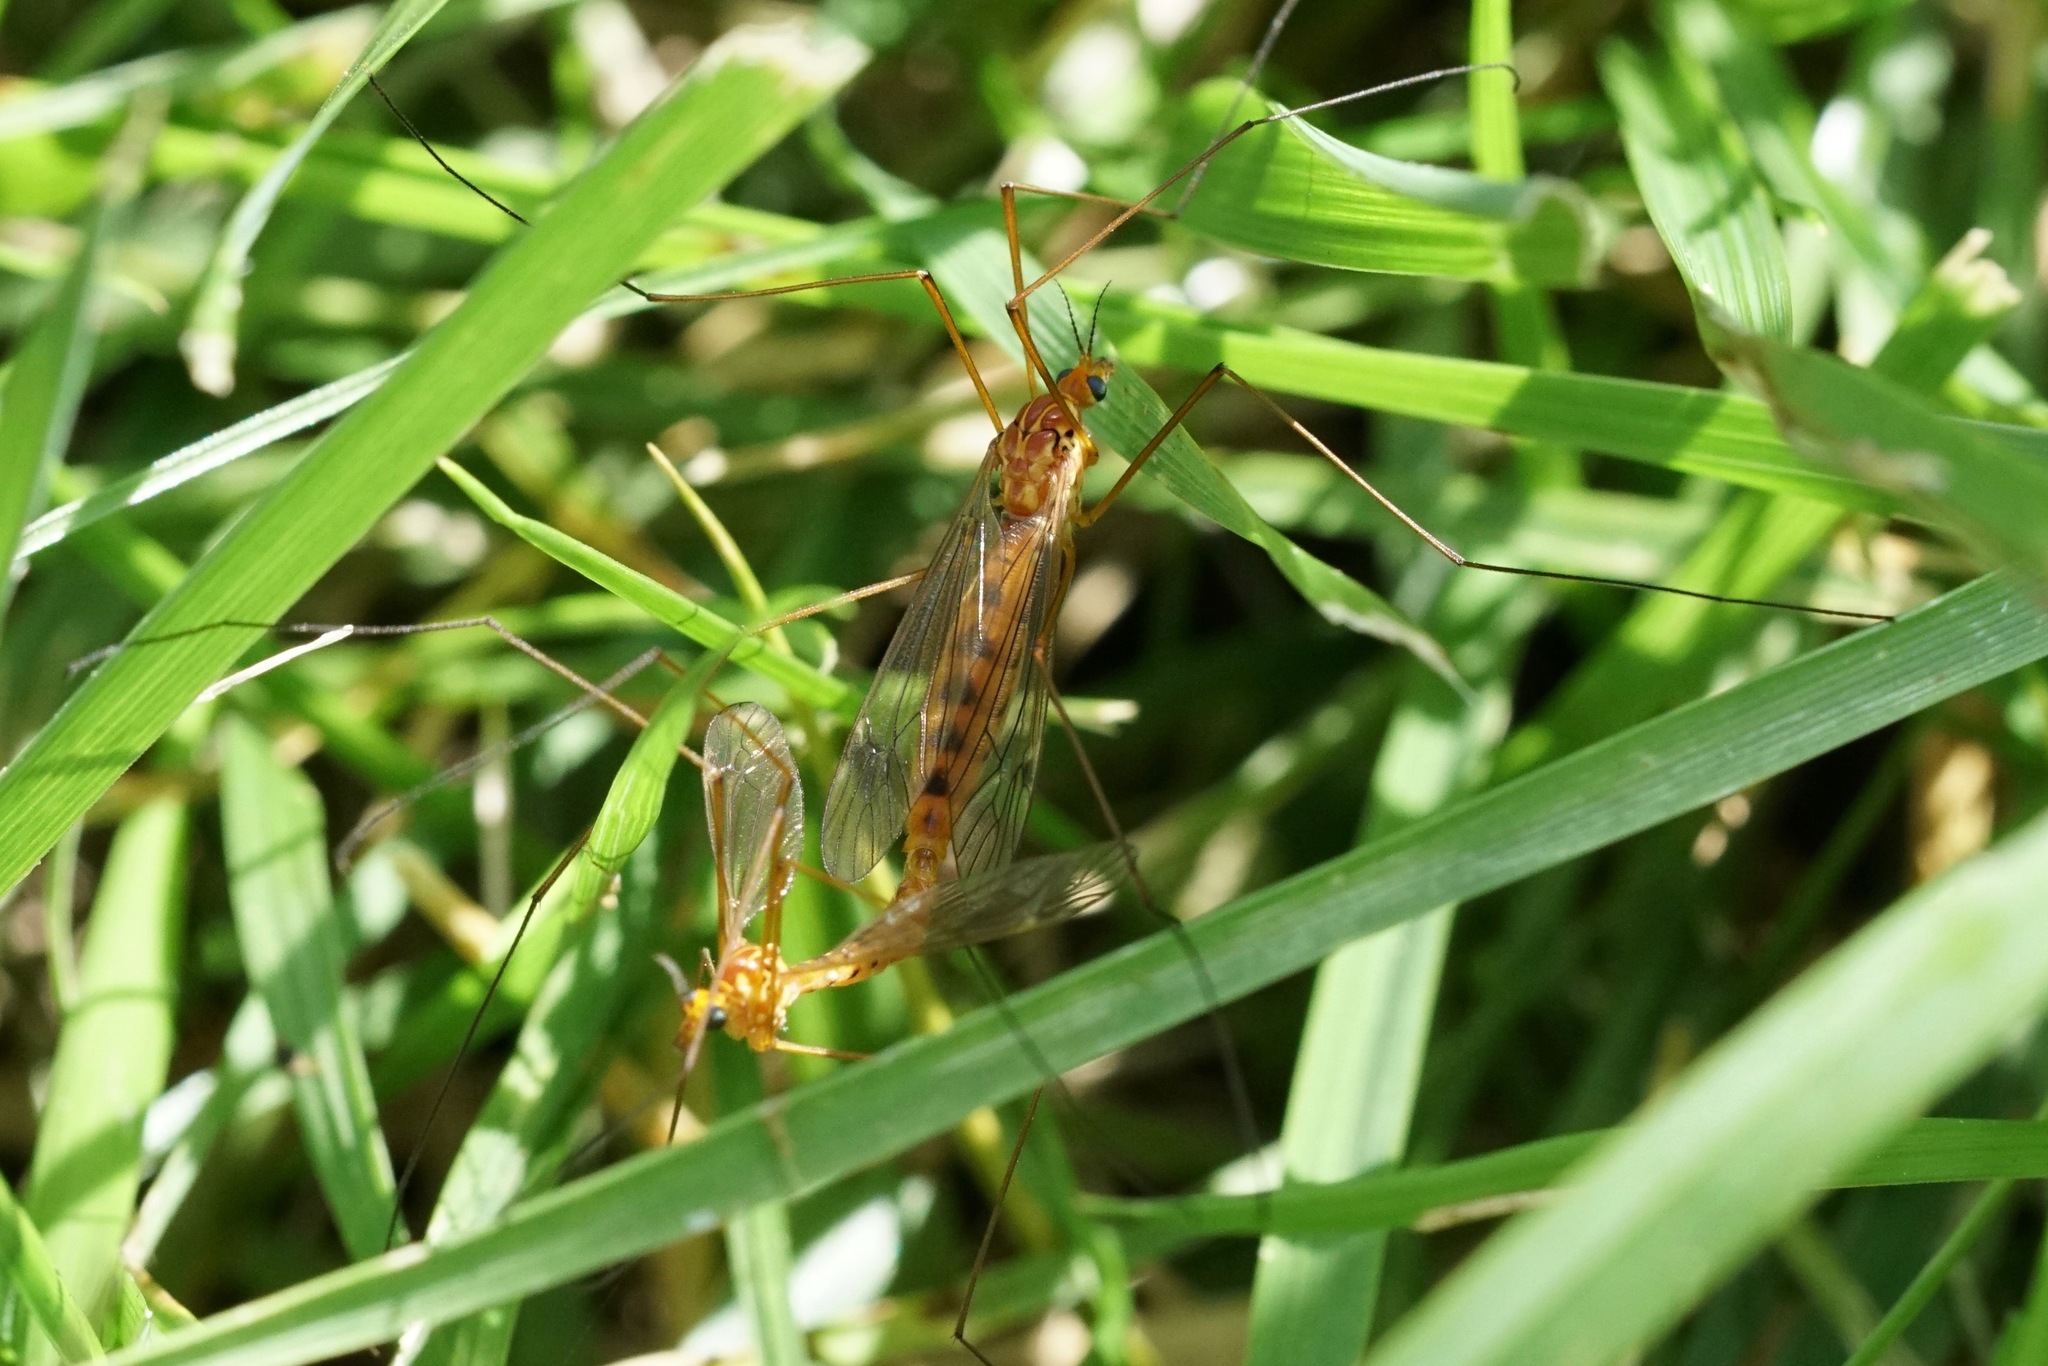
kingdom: Animalia
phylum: Arthropoda
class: Insecta
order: Diptera
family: Tipulidae
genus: Nephrotoma
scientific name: Nephrotoma ferruginea
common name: Ferruginous tiger crane fly
